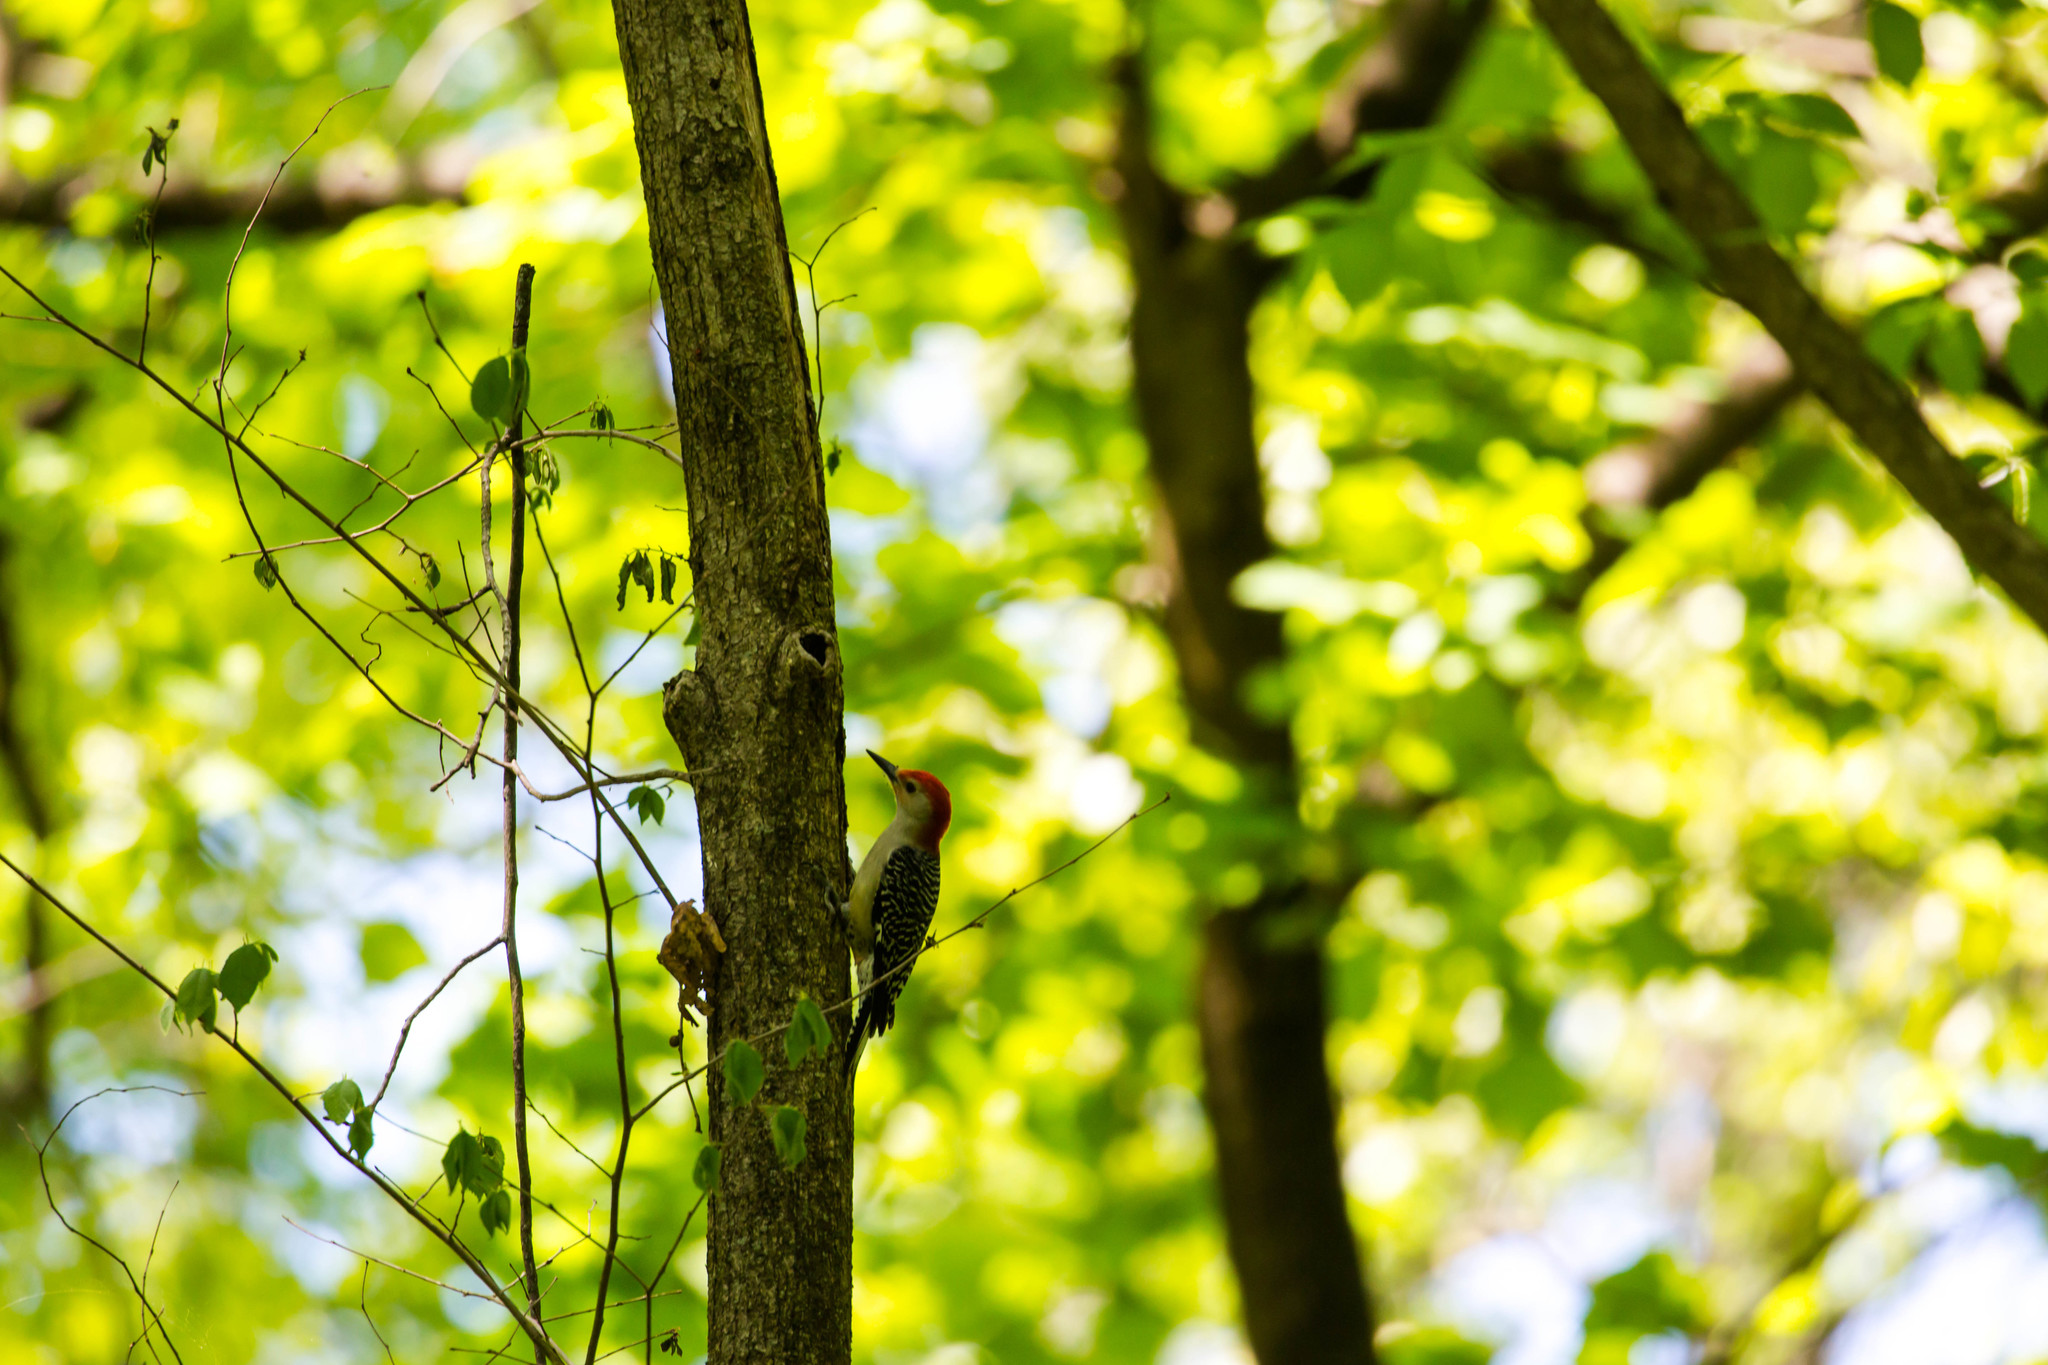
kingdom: Animalia
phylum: Chordata
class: Aves
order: Piciformes
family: Picidae
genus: Melanerpes
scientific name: Melanerpes carolinus
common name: Red-bellied woodpecker
